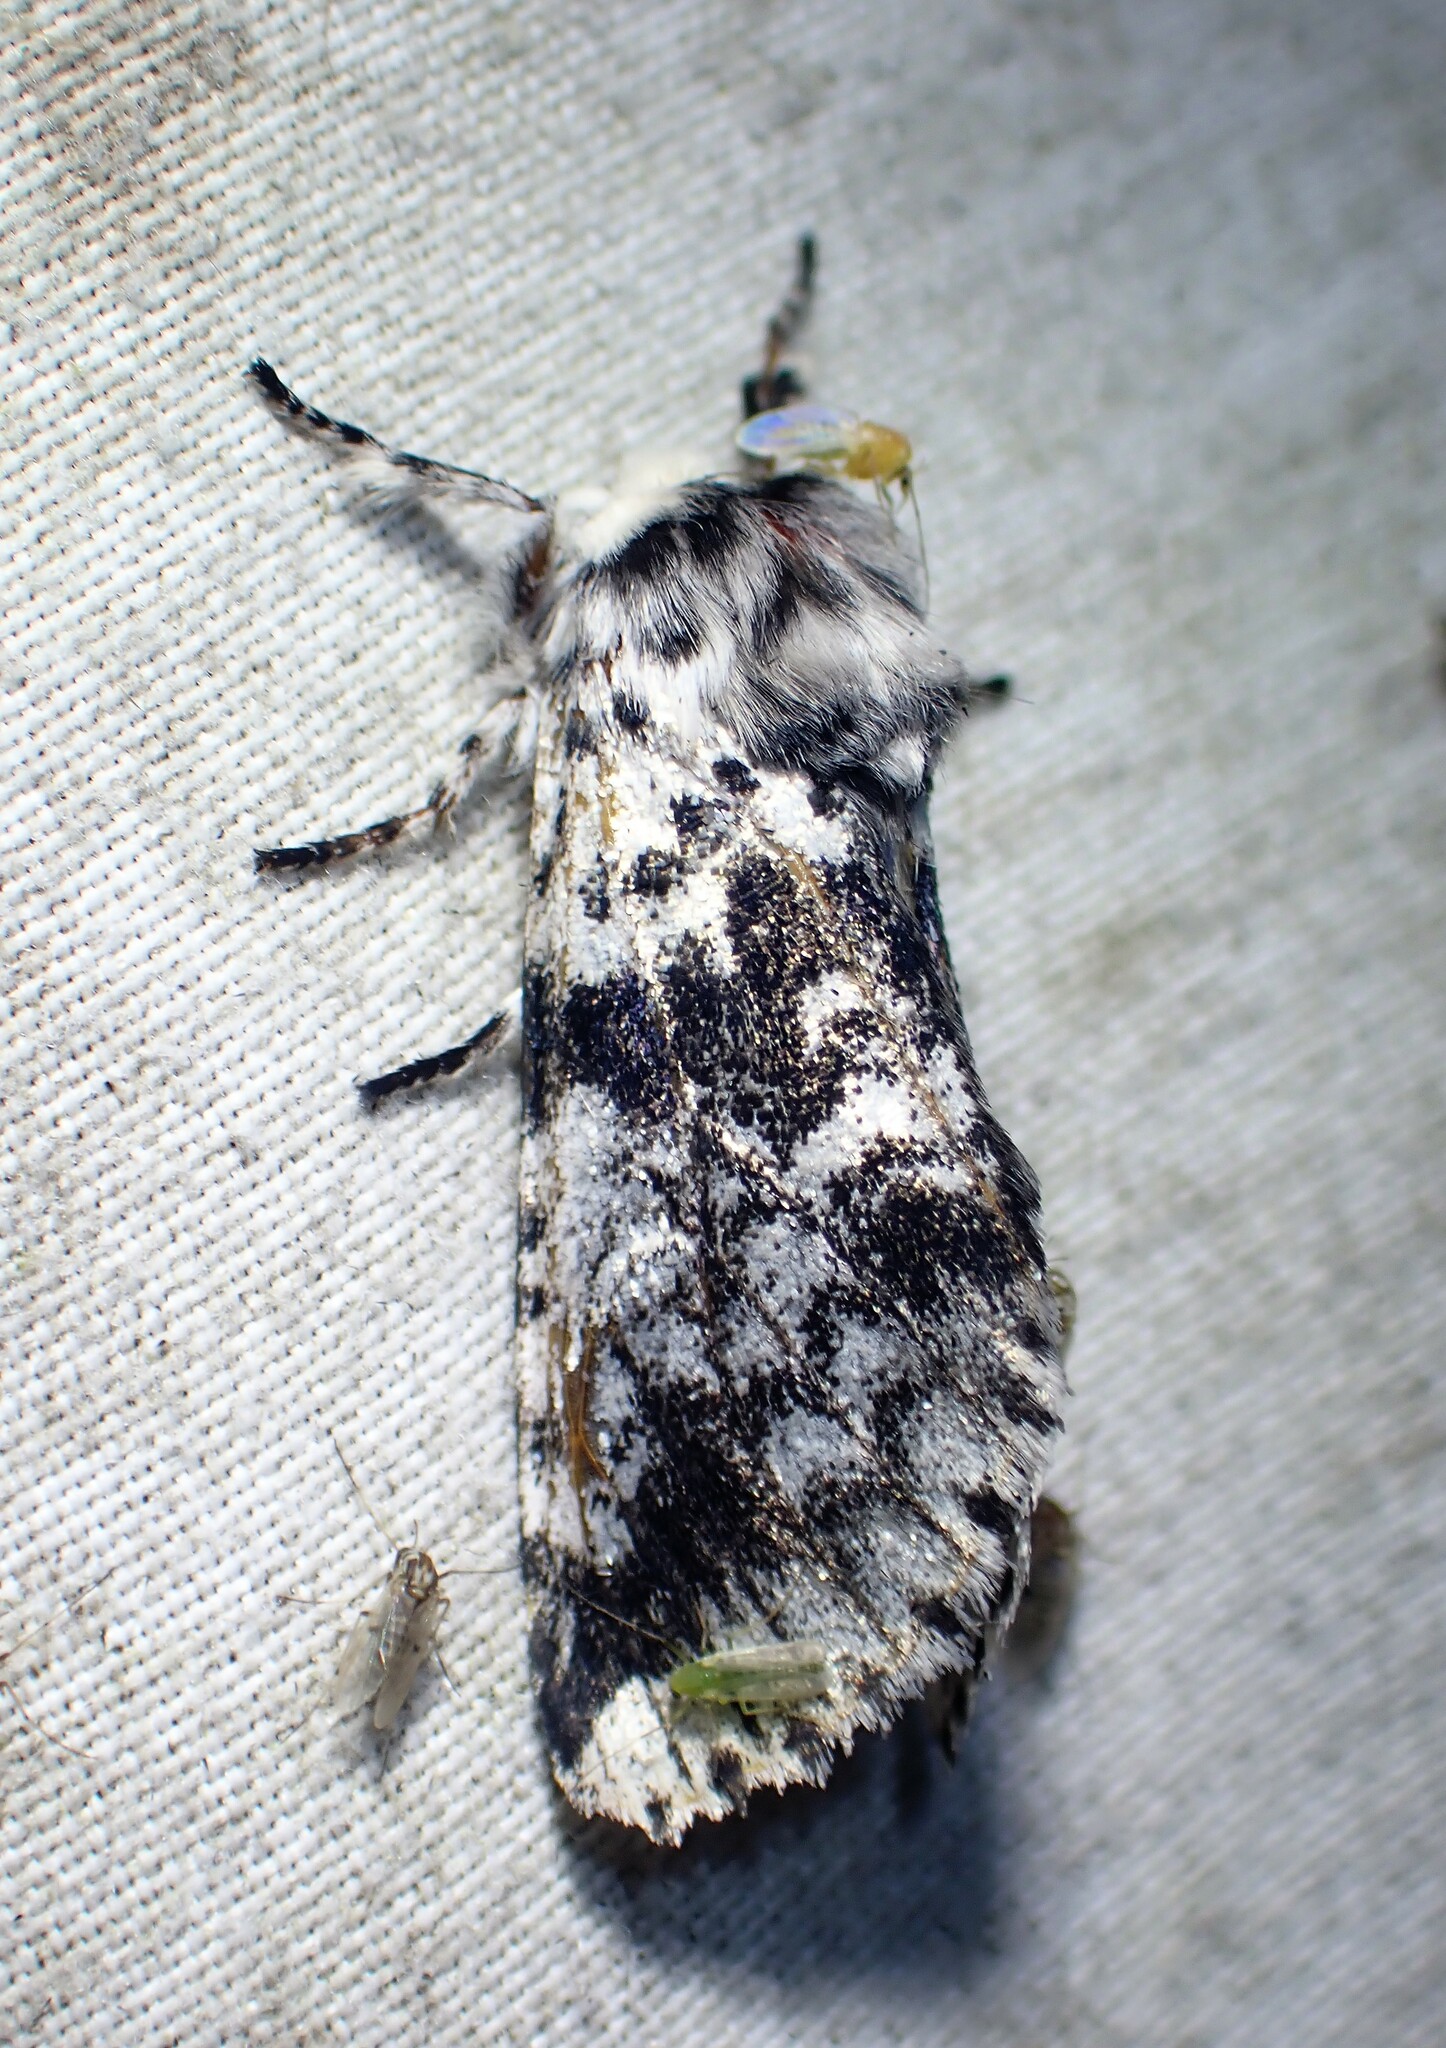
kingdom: Animalia
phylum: Arthropoda
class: Insecta
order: Lepidoptera
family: Noctuidae
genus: Panthea
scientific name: Panthea acronyctoides
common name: Black zigzag moth
